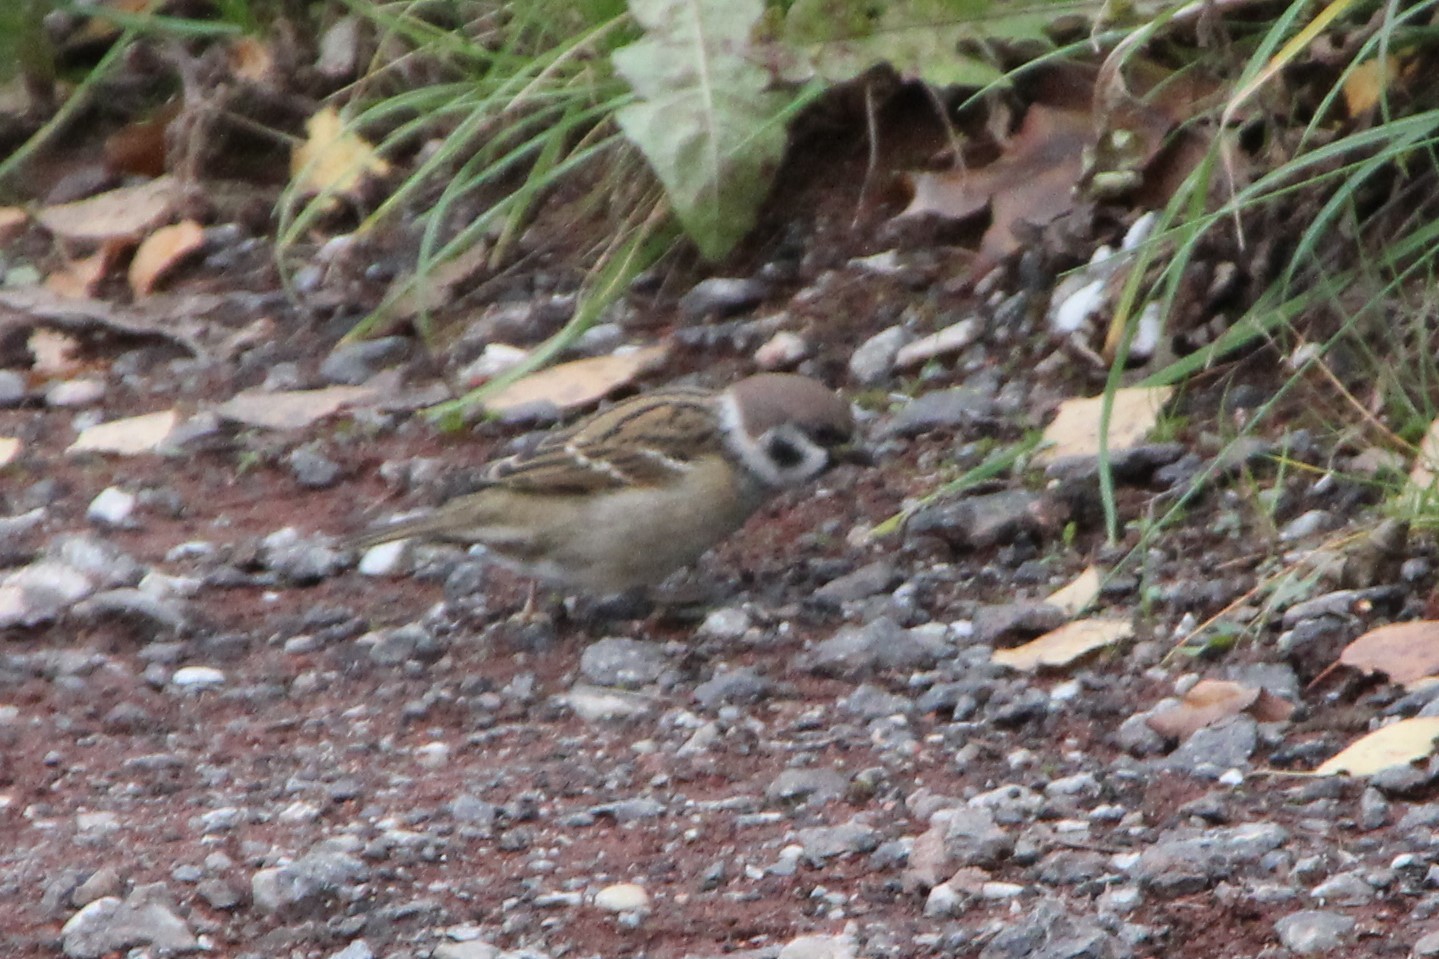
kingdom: Animalia
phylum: Chordata
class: Aves
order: Passeriformes
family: Passeridae
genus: Passer
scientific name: Passer montanus
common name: Eurasian tree sparrow
